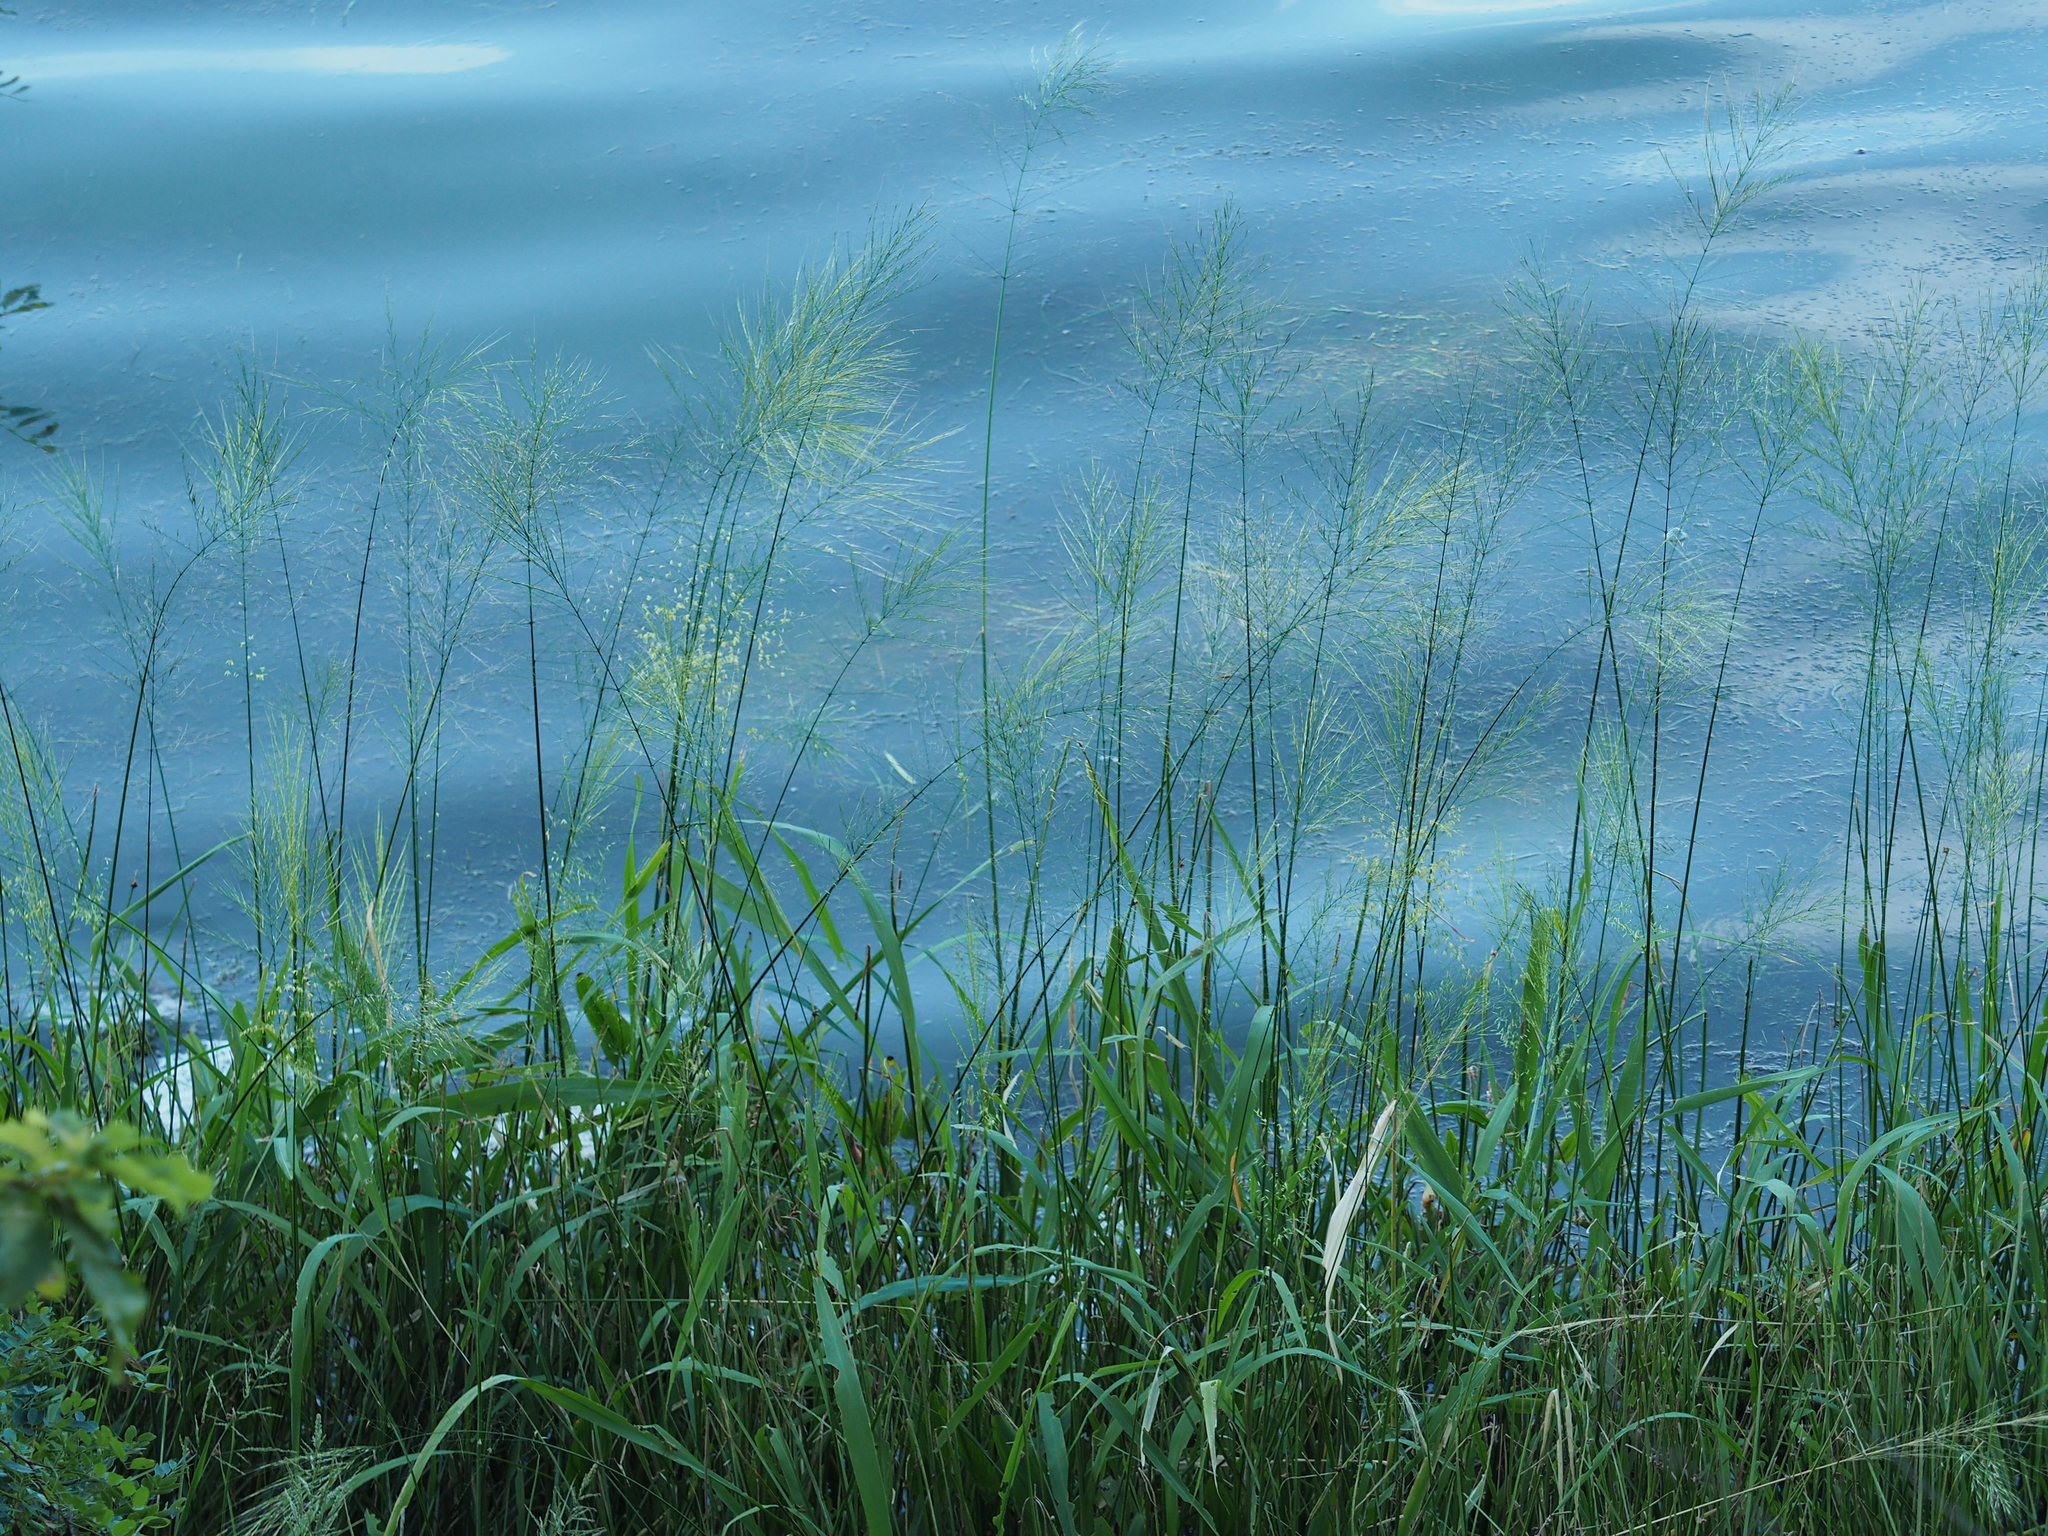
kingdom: Plantae
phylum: Tracheophyta
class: Liliopsida
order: Poales
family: Poaceae
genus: Zizania
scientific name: Zizania aquatica
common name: Annual wildrice
